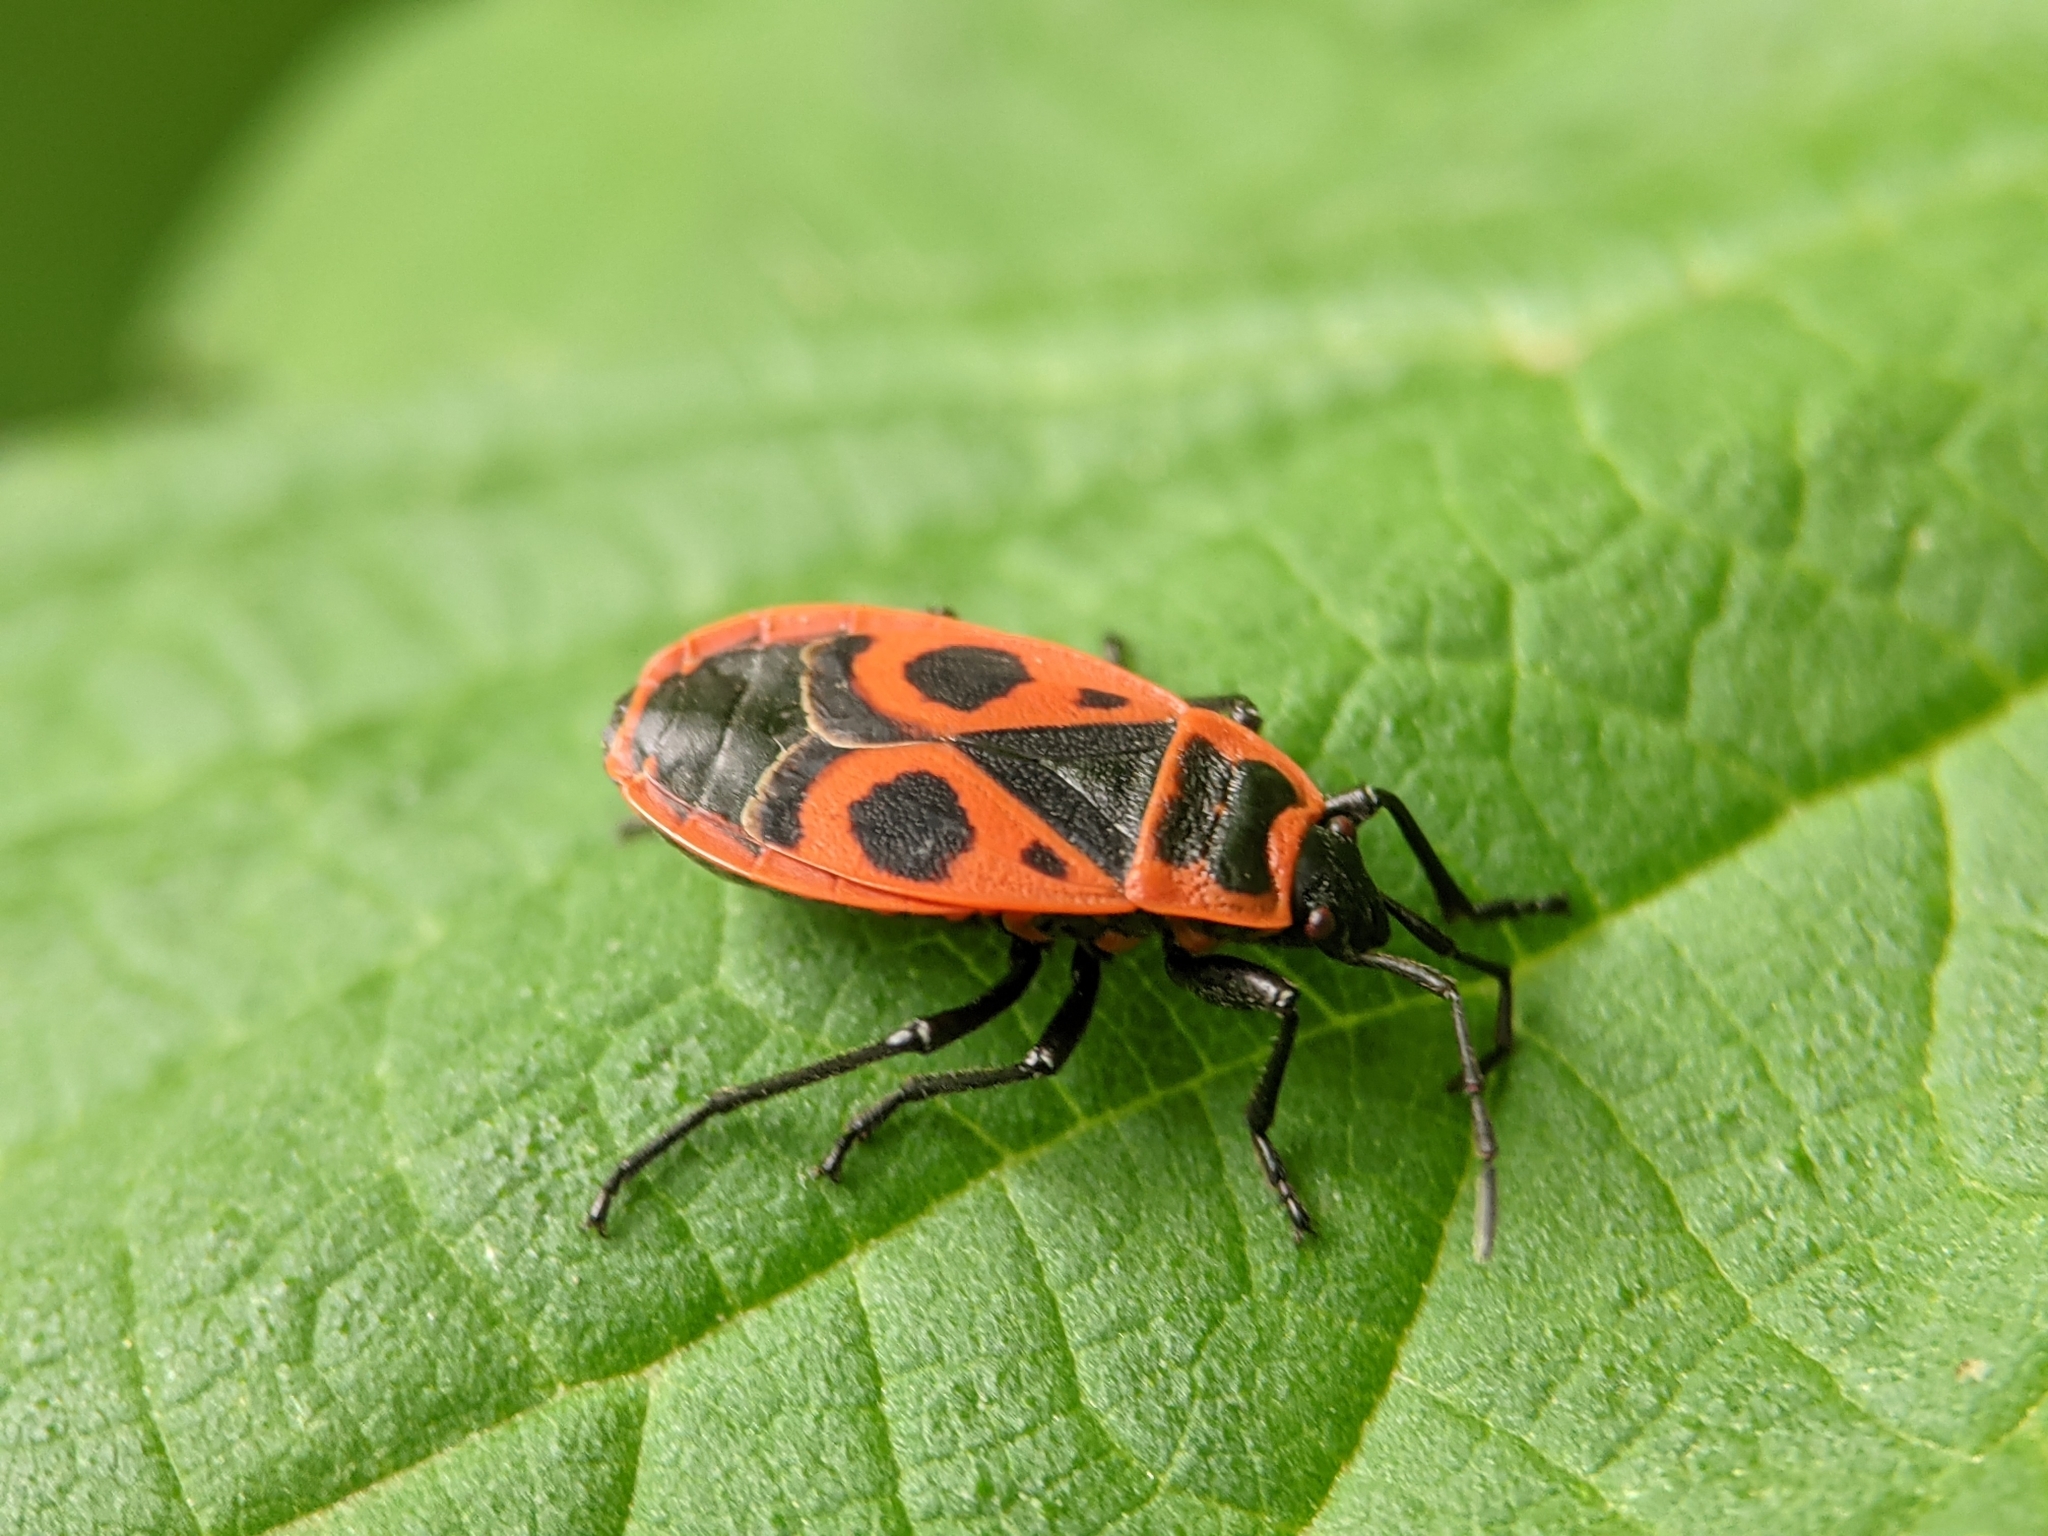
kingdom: Animalia
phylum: Arthropoda
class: Insecta
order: Hemiptera
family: Pyrrhocoridae
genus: Pyrrhocoris
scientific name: Pyrrhocoris apterus
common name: Firebug
